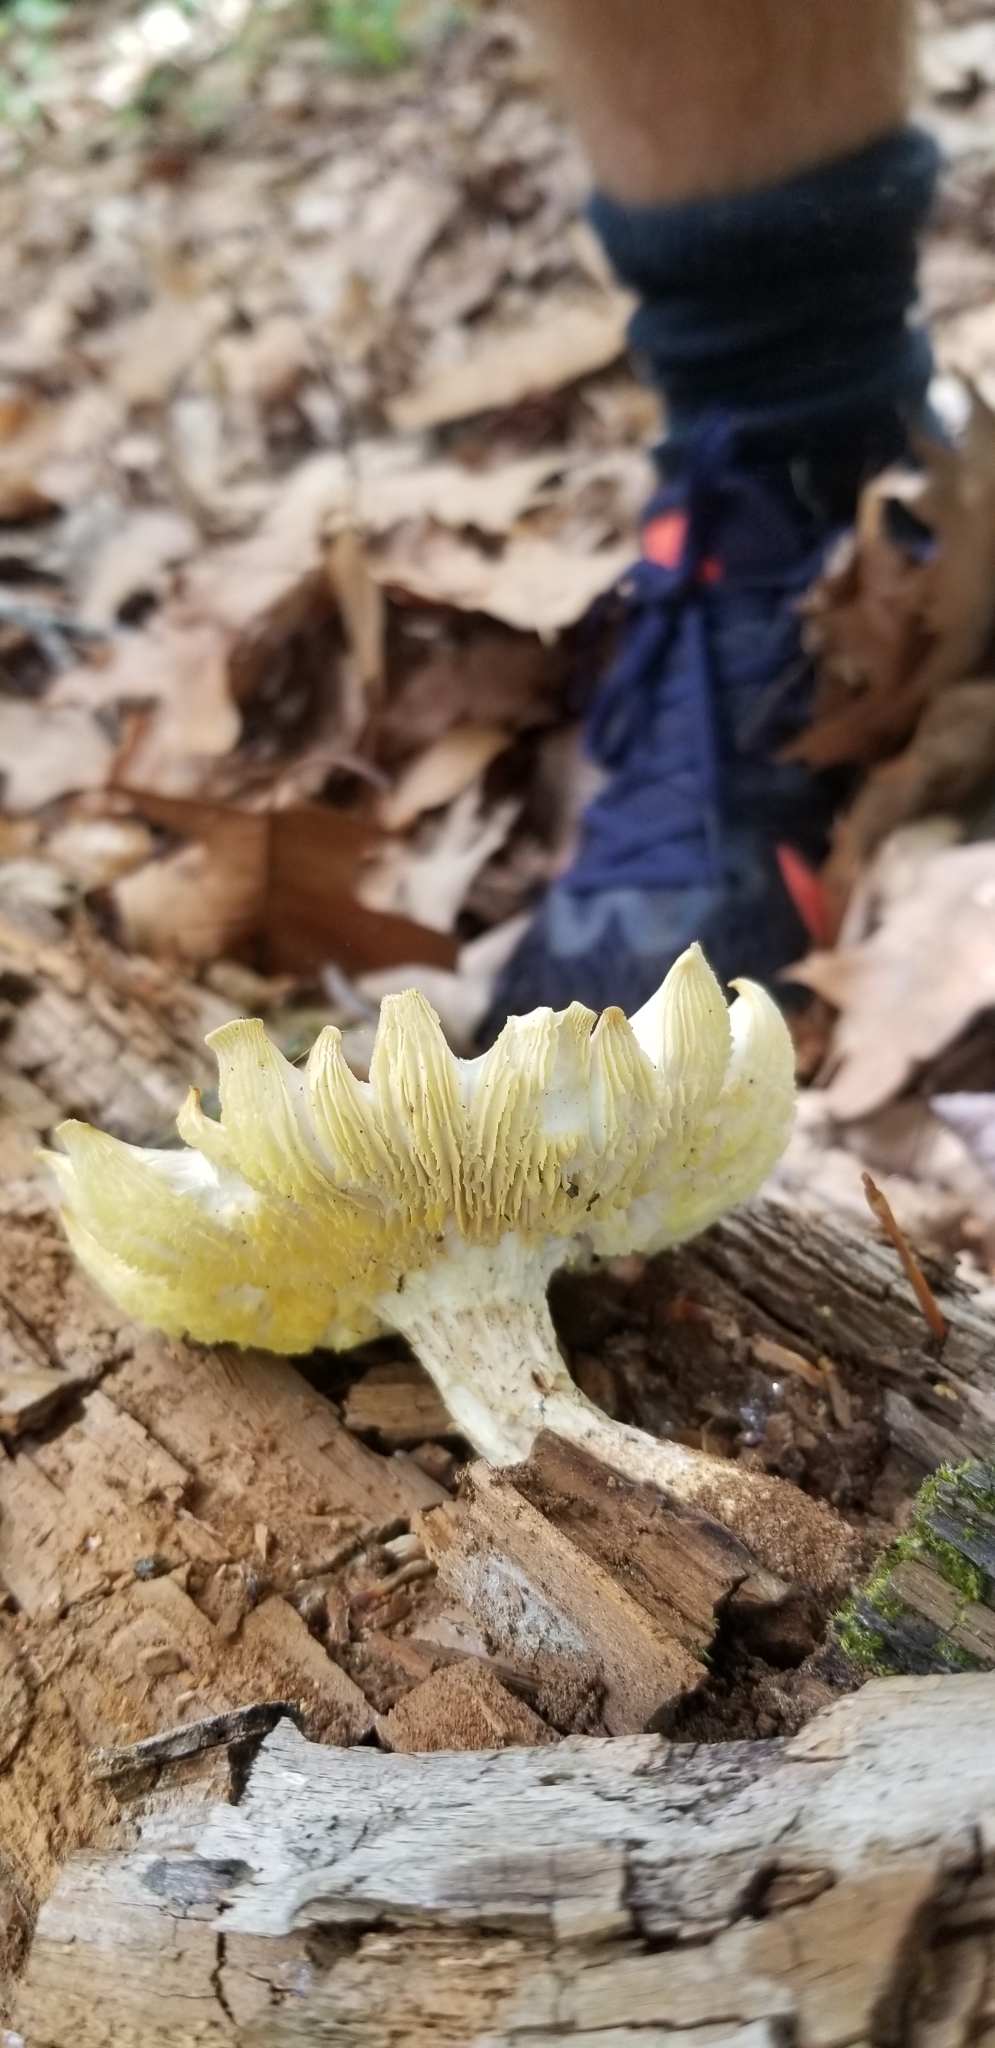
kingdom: Fungi
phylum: Basidiomycota
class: Agaricomycetes
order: Gloeophyllales
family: Gloeophyllaceae
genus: Neolentinus
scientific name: Neolentinus lepideus
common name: Scaly sawgill
